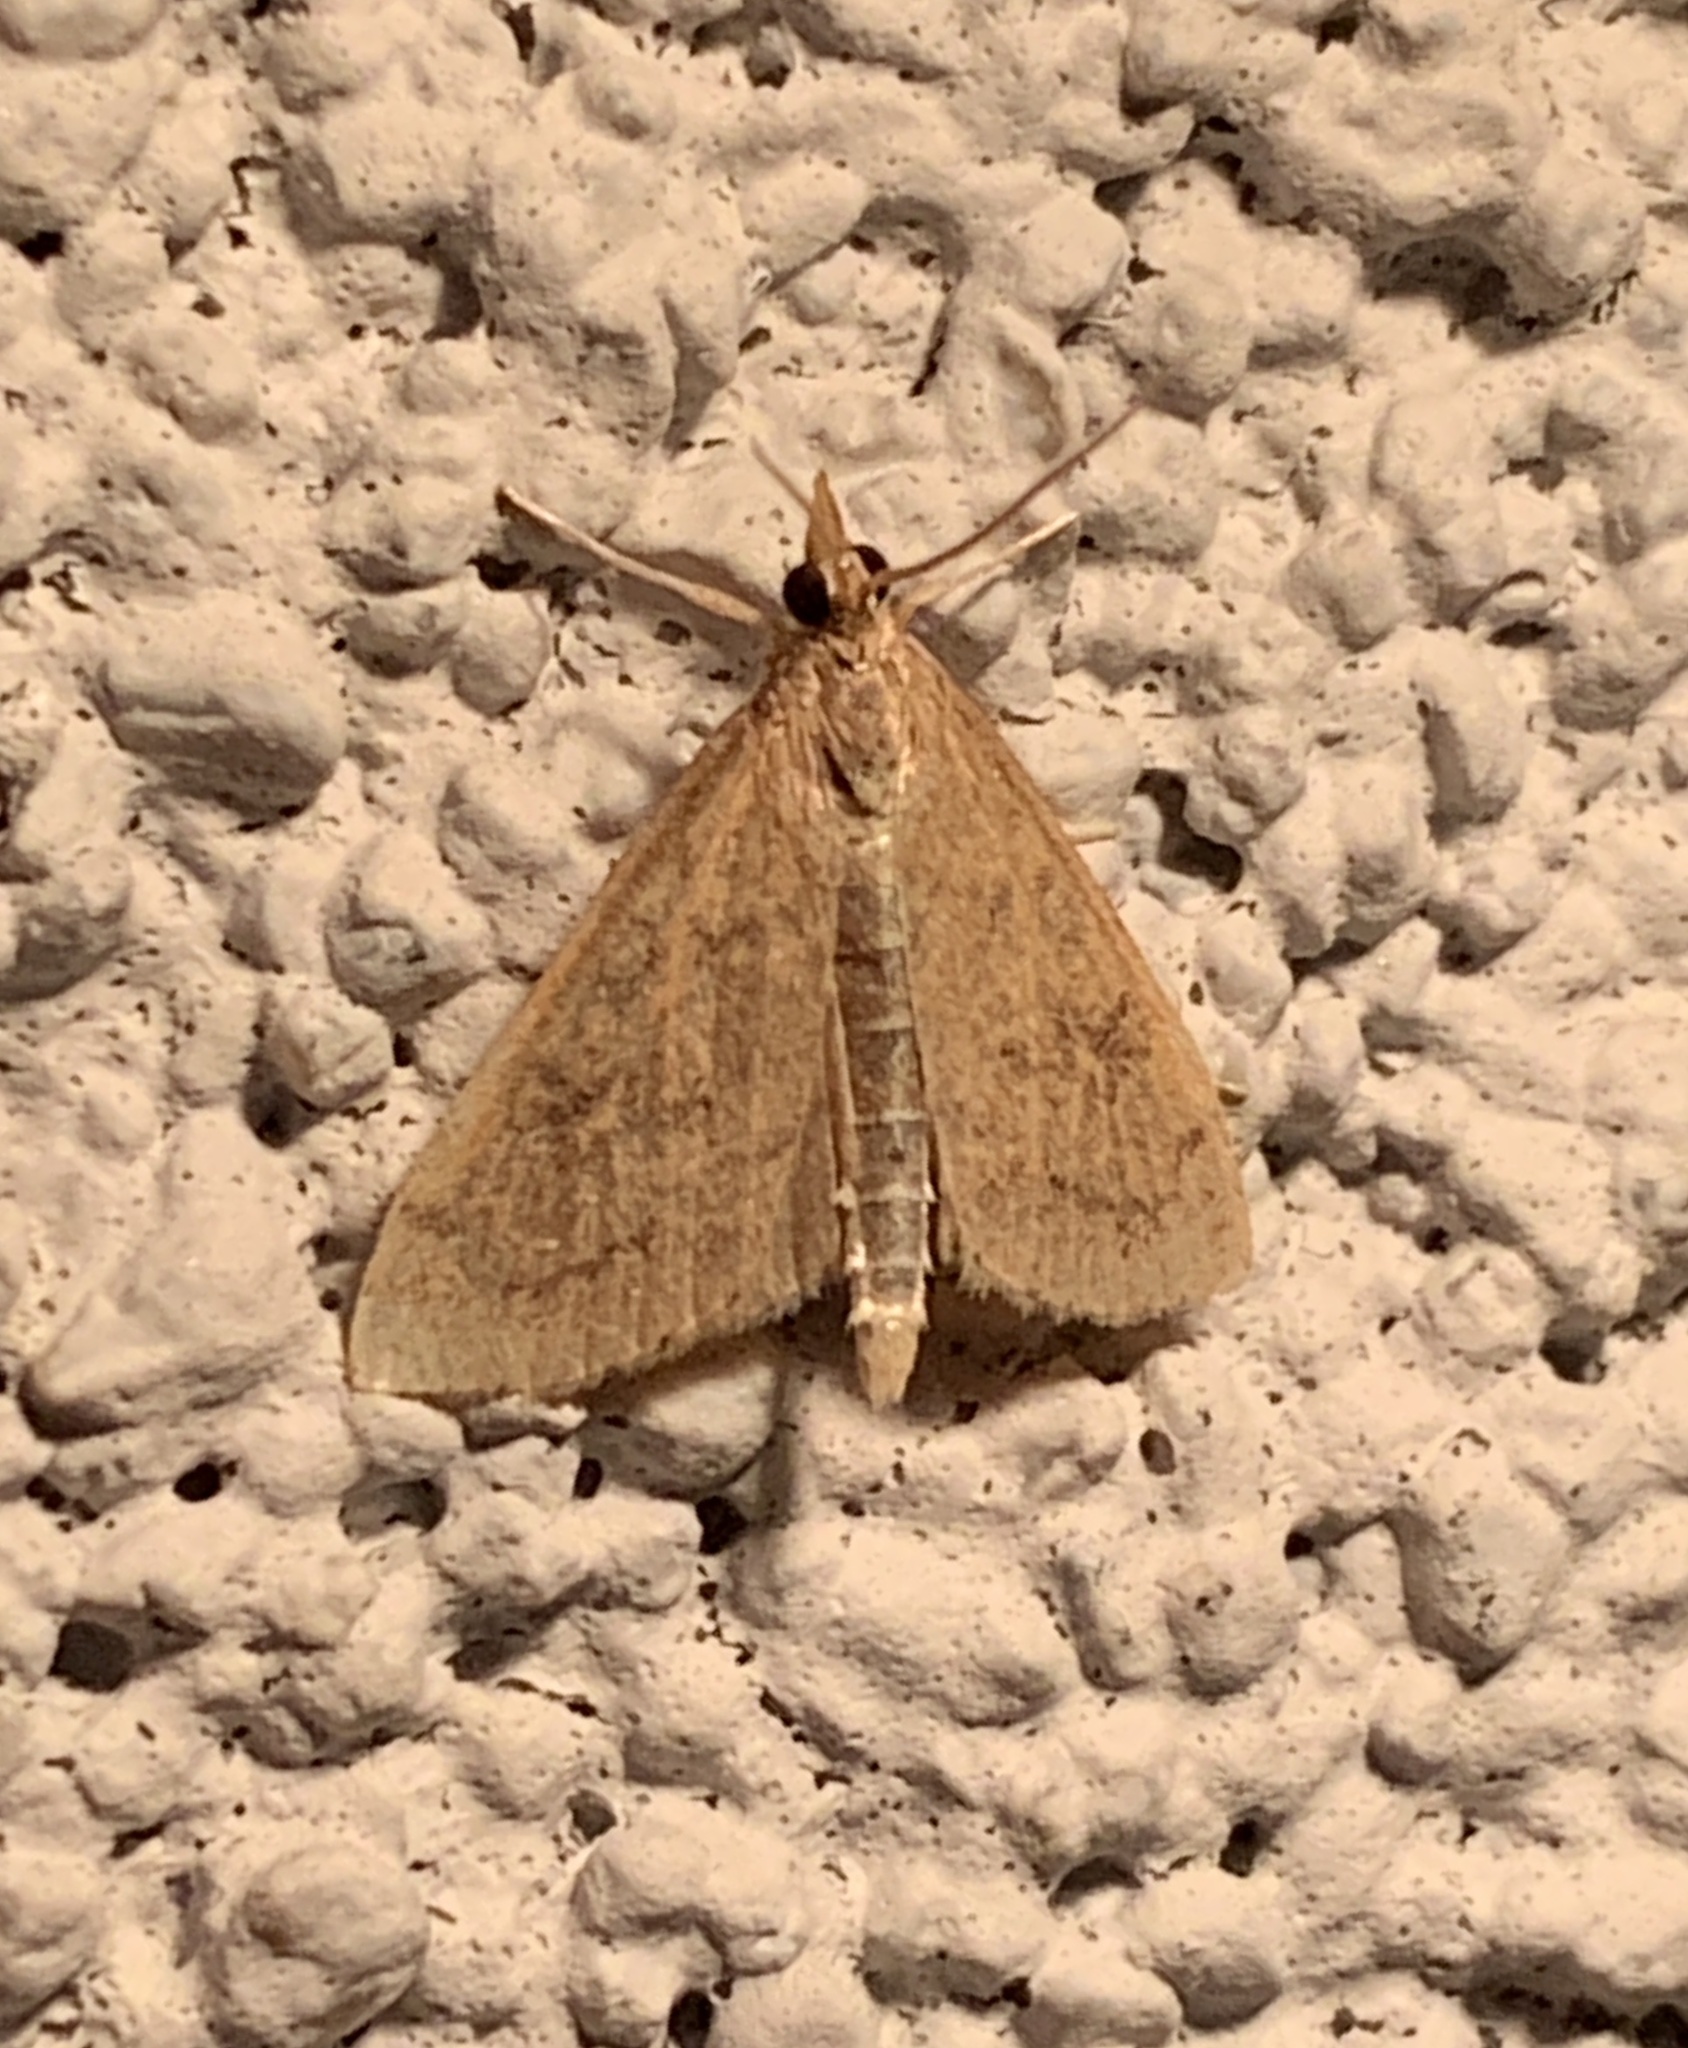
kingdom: Animalia
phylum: Arthropoda
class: Insecta
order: Lepidoptera
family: Crambidae
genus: Udea
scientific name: Udea rubigalis
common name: Celery leaftier moth
